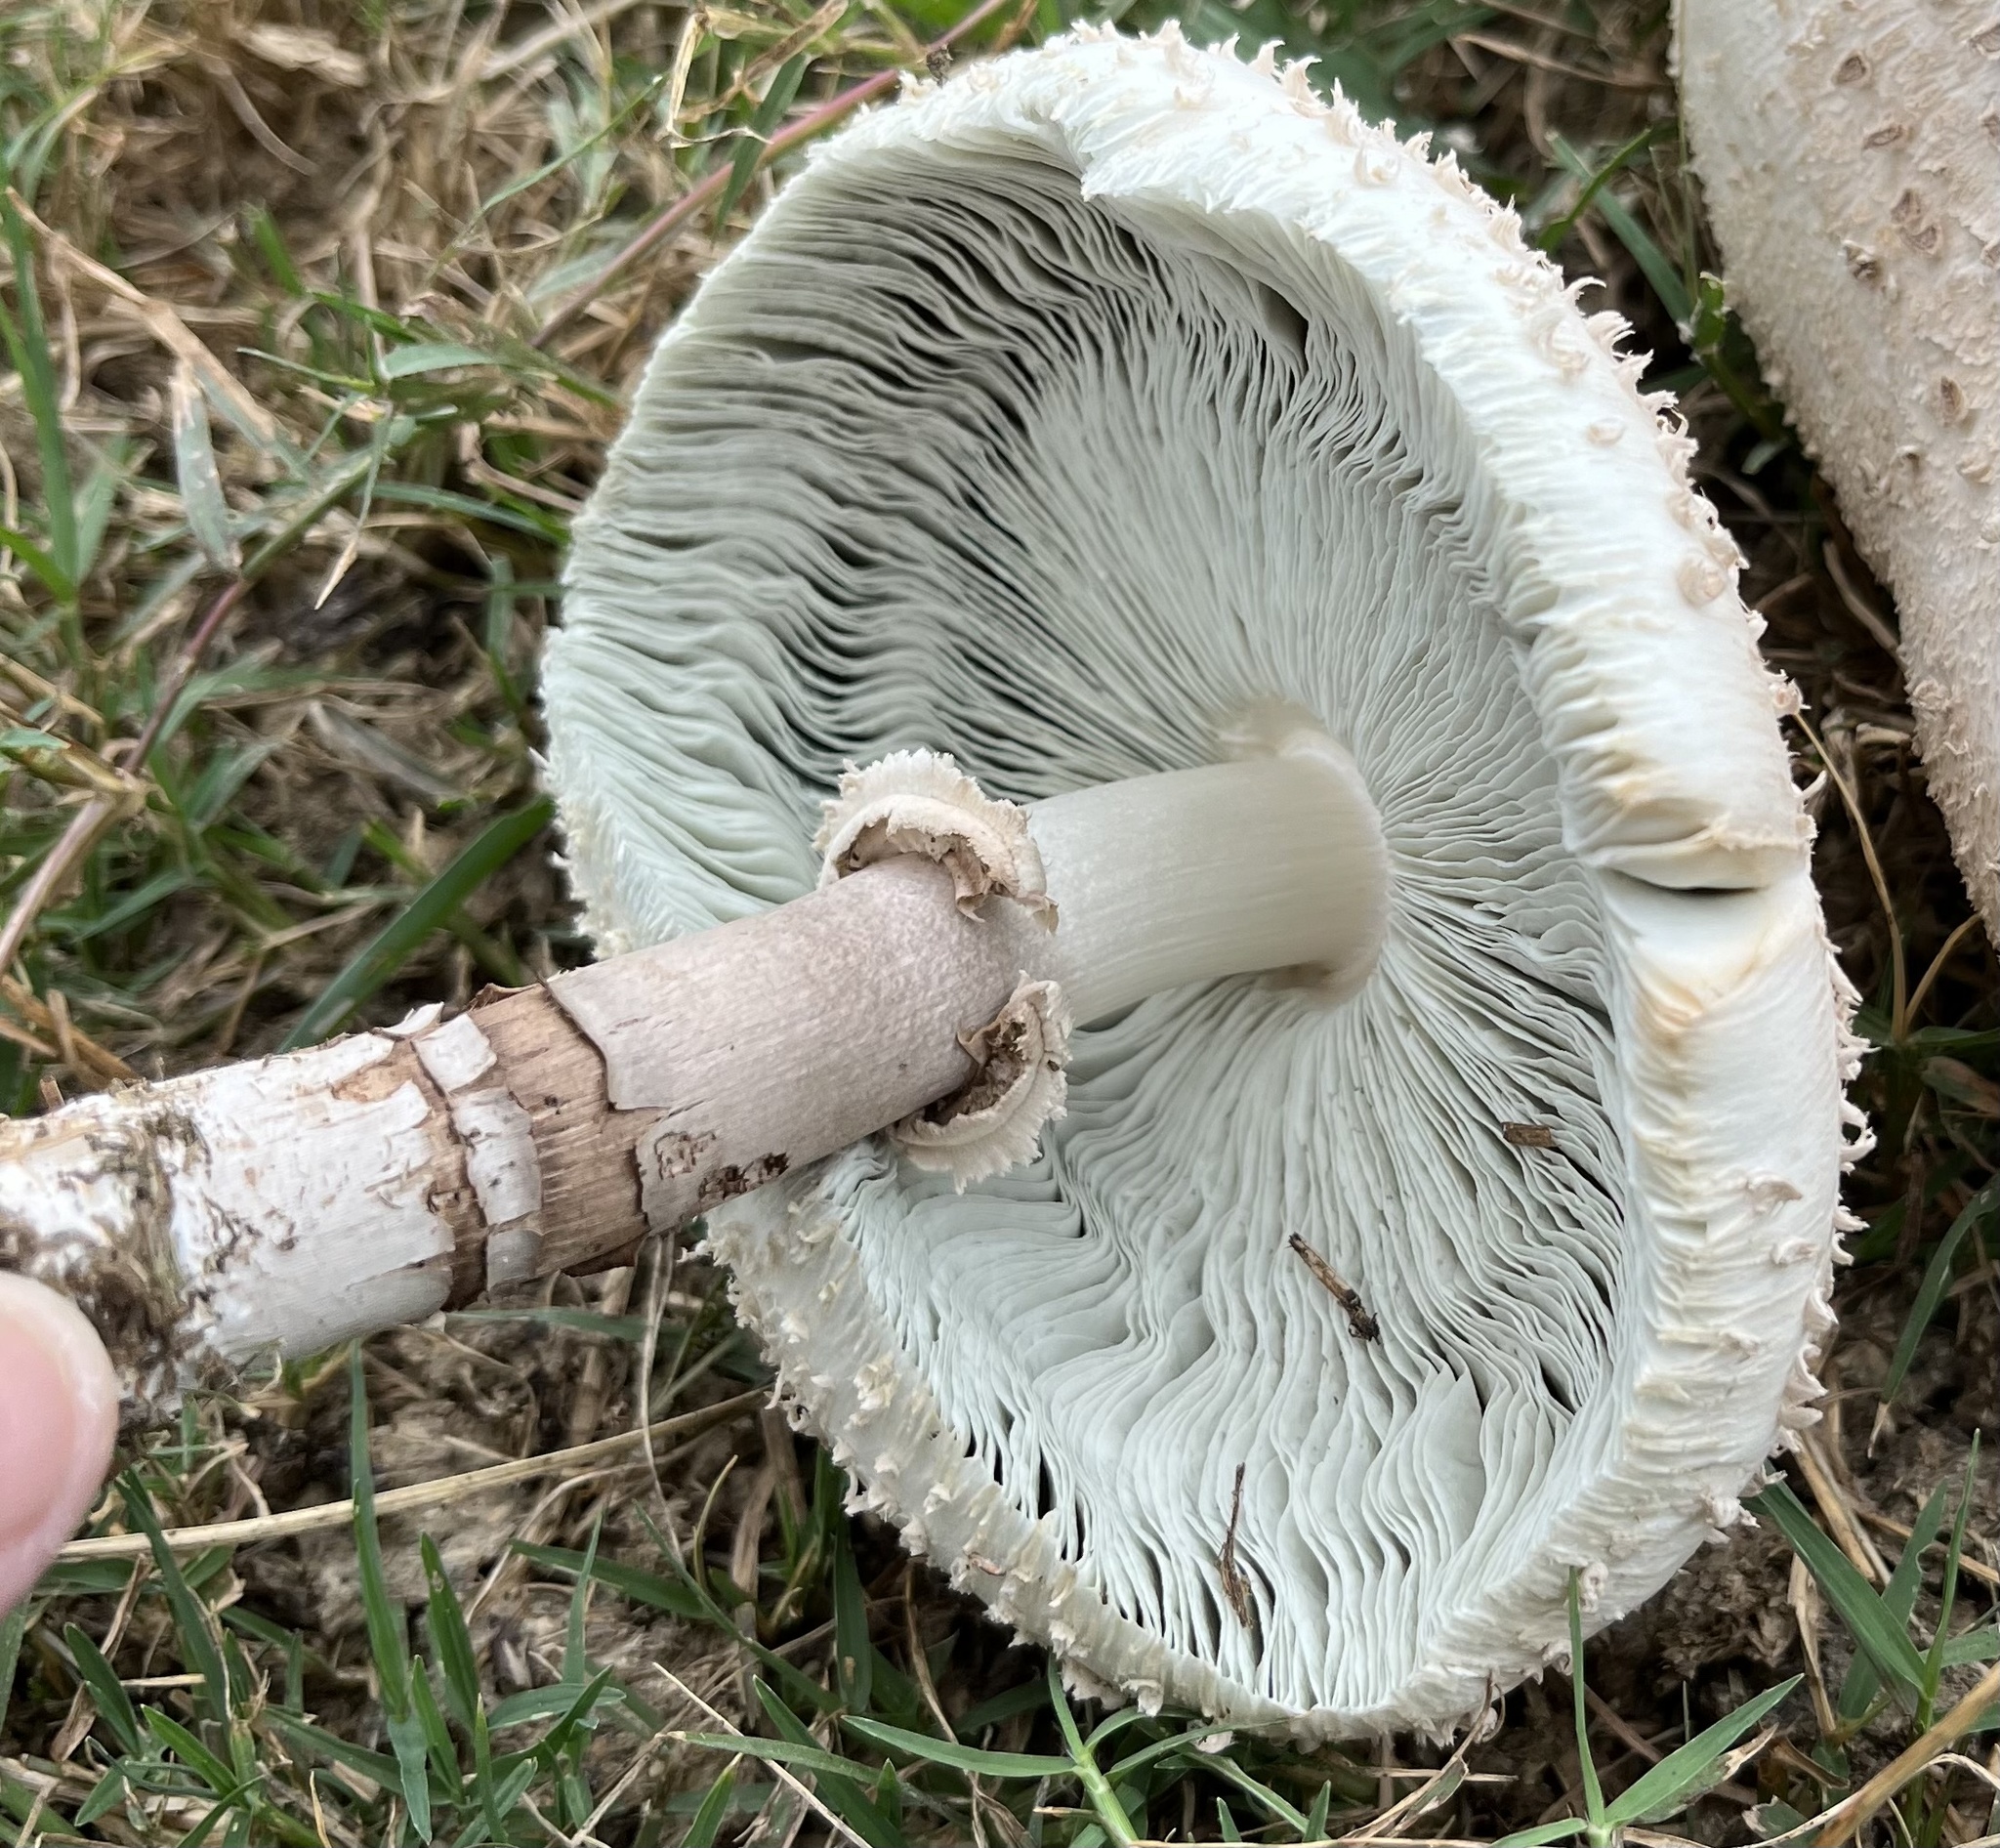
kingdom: Fungi
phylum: Basidiomycota
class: Agaricomycetes
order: Agaricales
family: Agaricaceae
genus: Chlorophyllum
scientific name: Chlorophyllum molybdites
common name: False parasol
